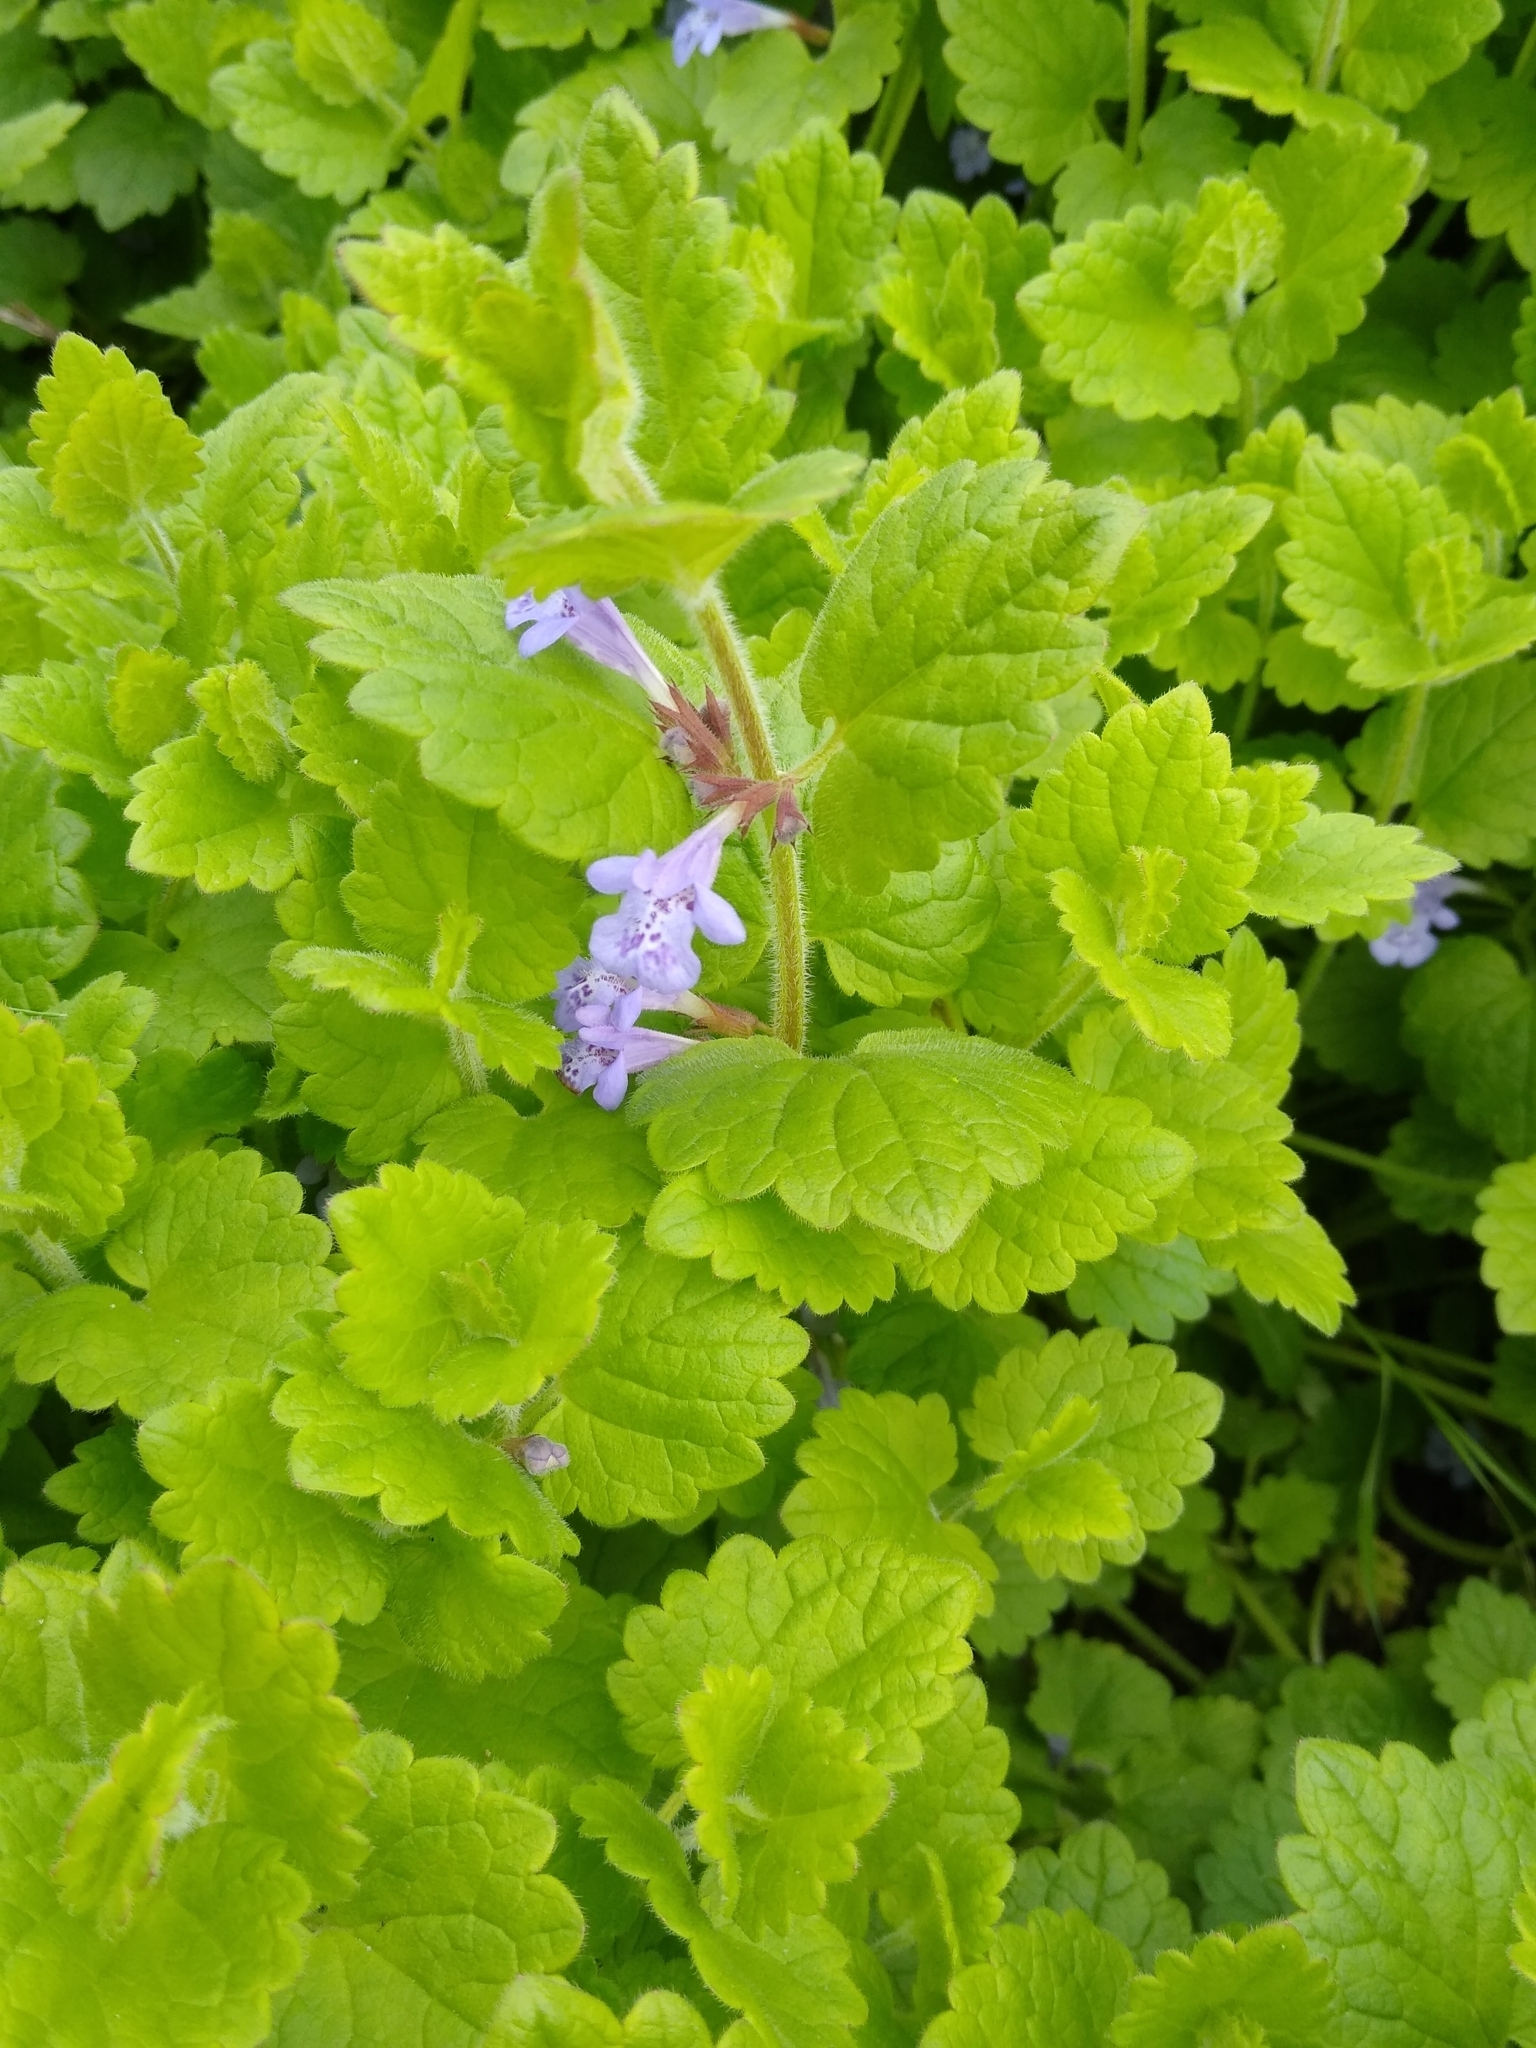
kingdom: Plantae
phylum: Tracheophyta
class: Magnoliopsida
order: Lamiales
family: Lamiaceae
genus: Glechoma
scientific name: Glechoma hederacea
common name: Ground ivy
